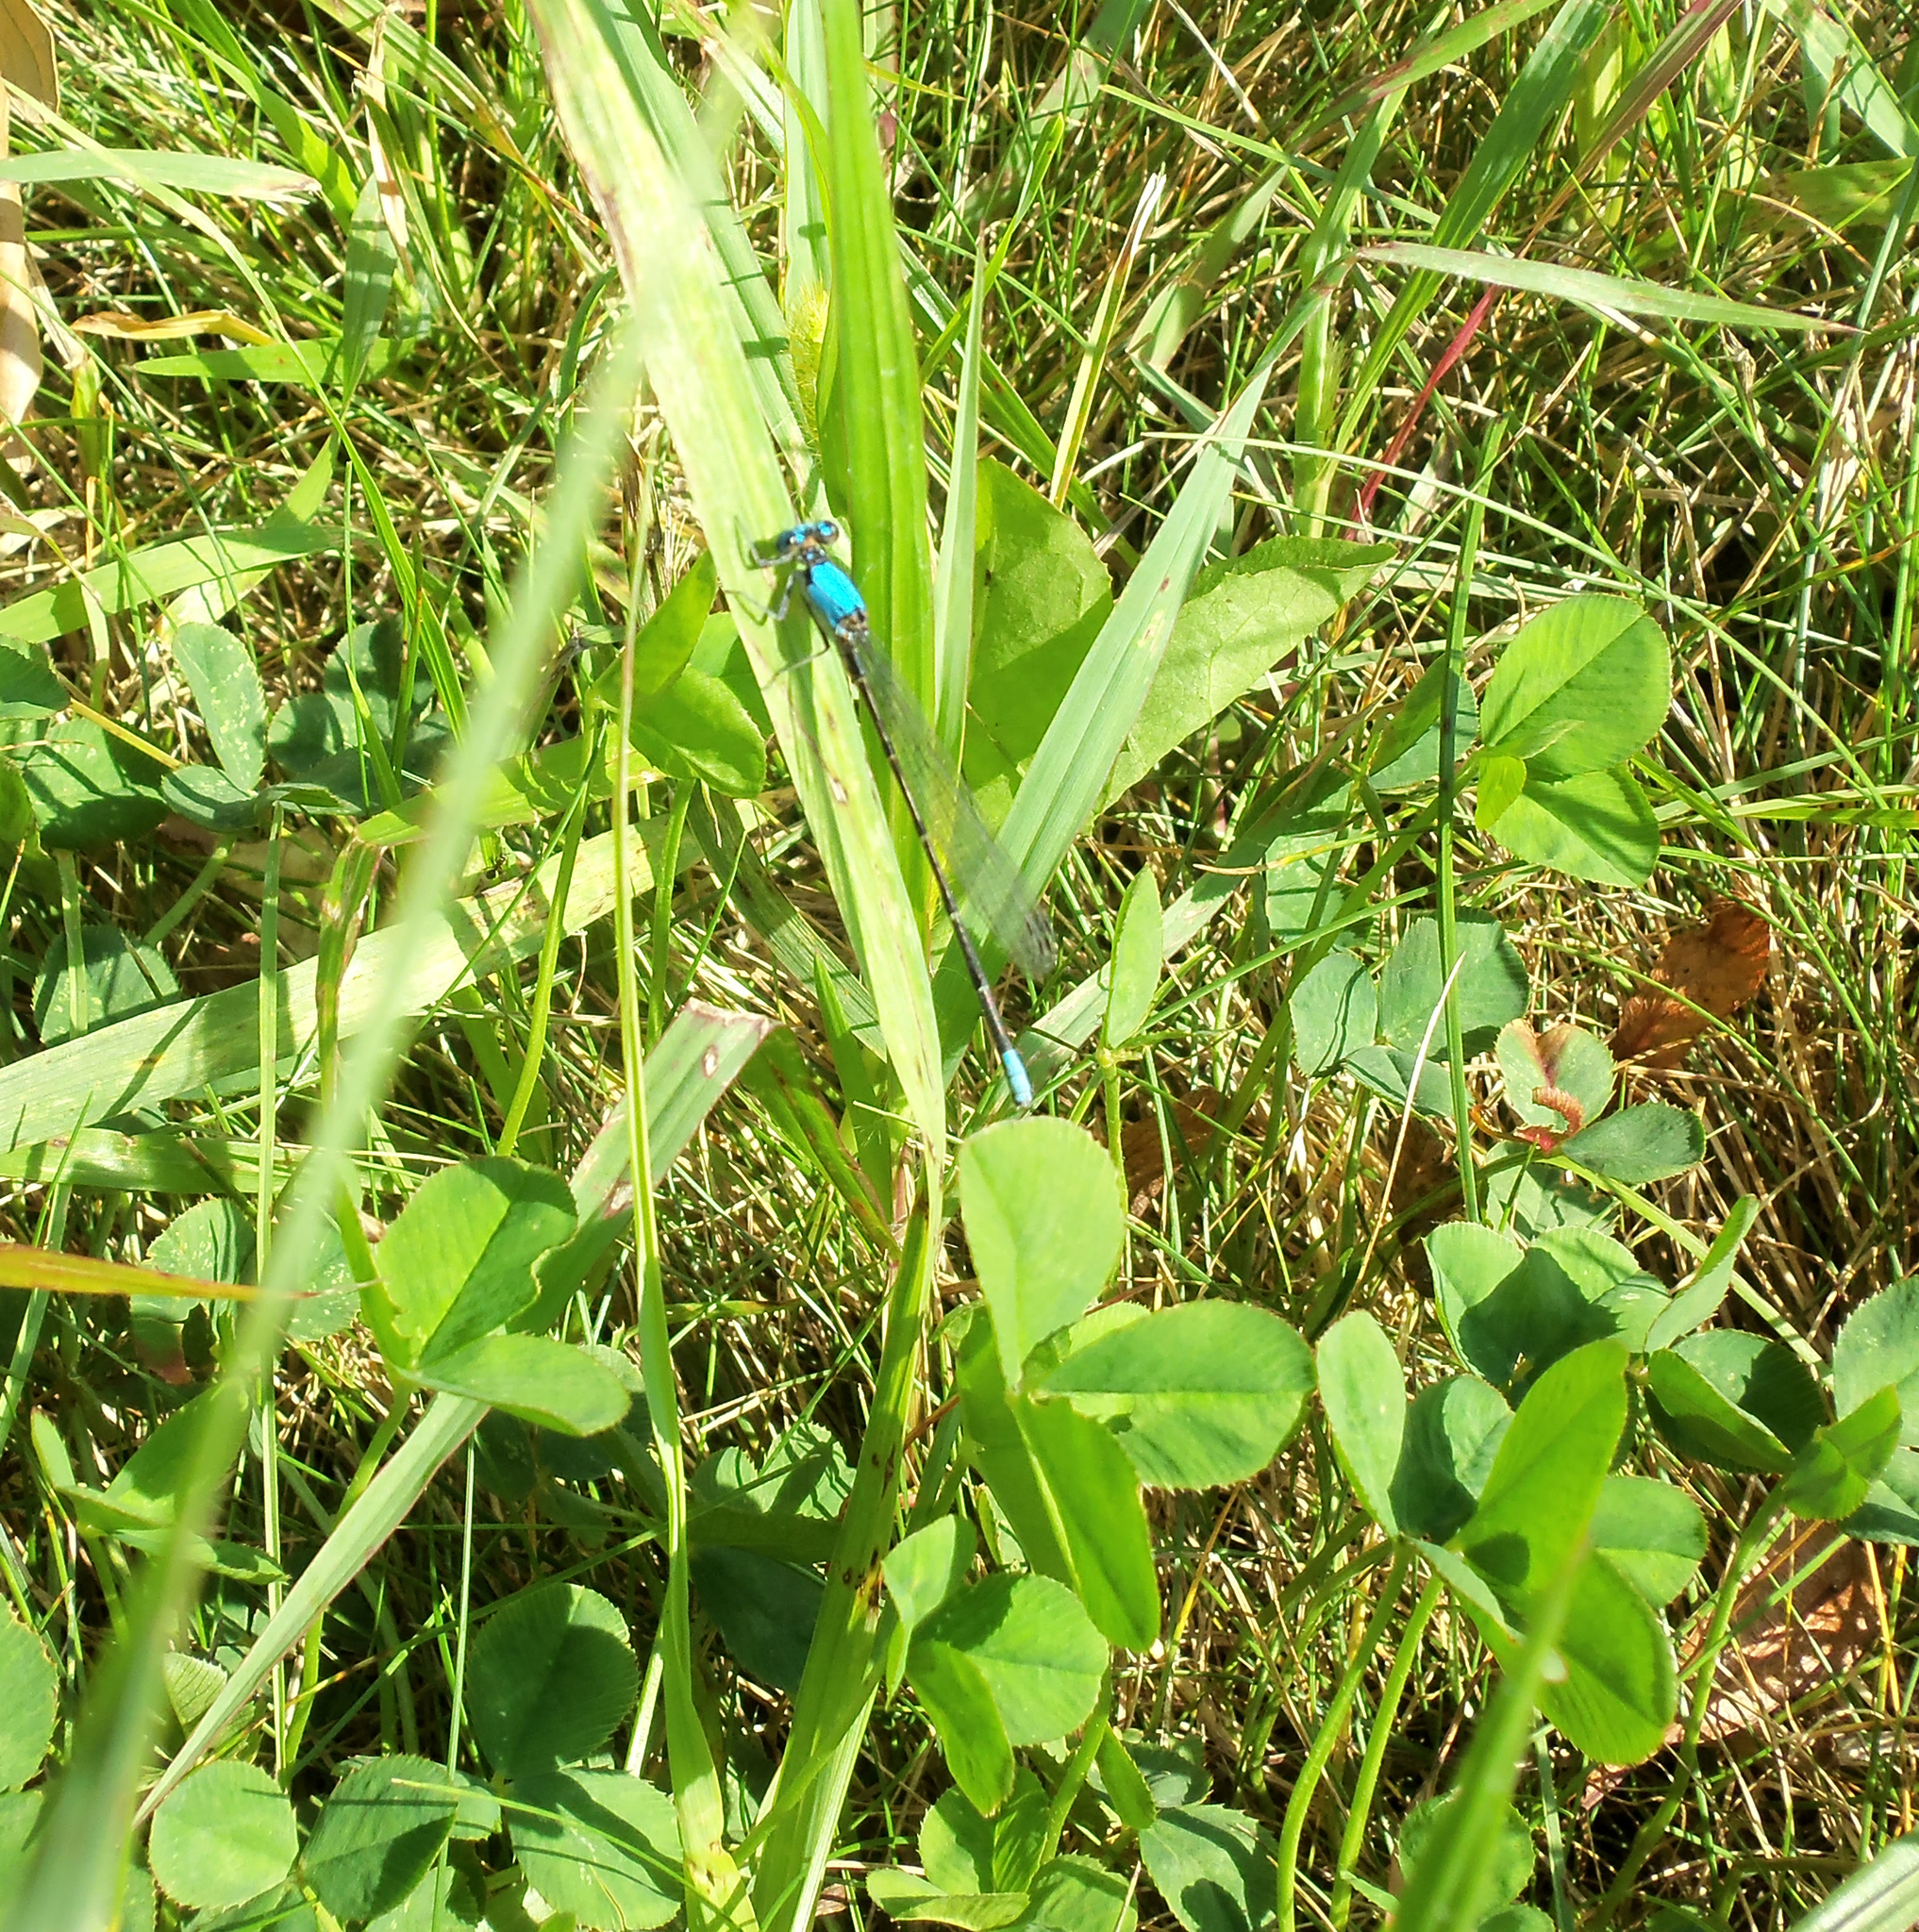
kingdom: Animalia
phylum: Arthropoda
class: Insecta
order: Odonata
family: Coenagrionidae
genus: Argia
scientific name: Argia apicalis
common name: Blue-fronted dancer
